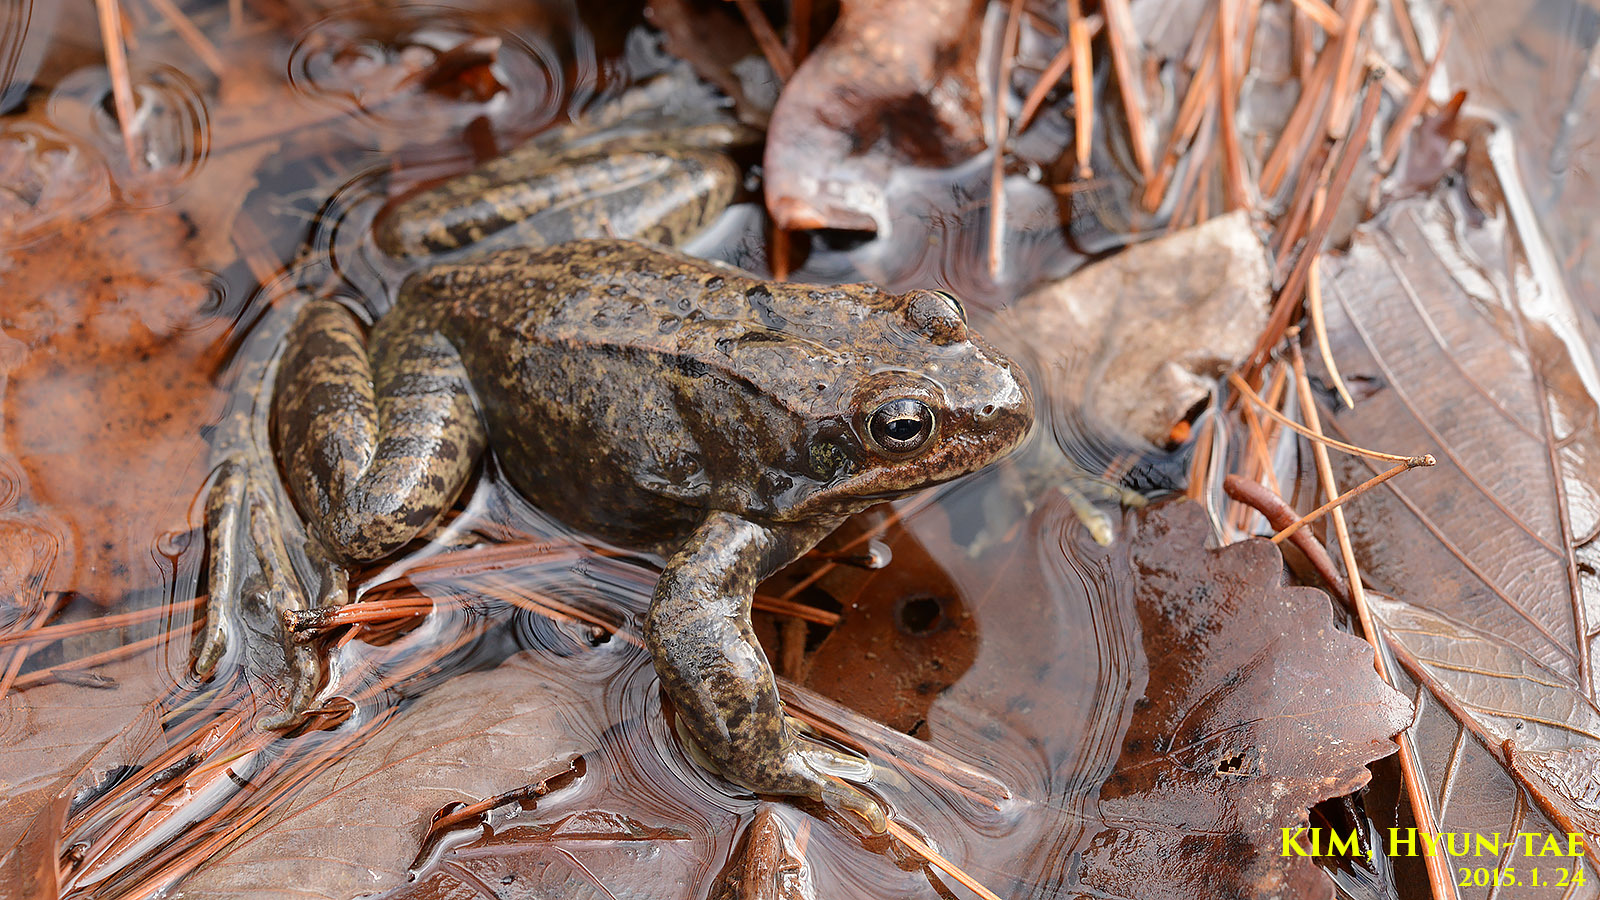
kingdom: Animalia
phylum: Chordata
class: Amphibia
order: Anura
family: Ranidae
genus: Rana
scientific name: Rana dybowskii
